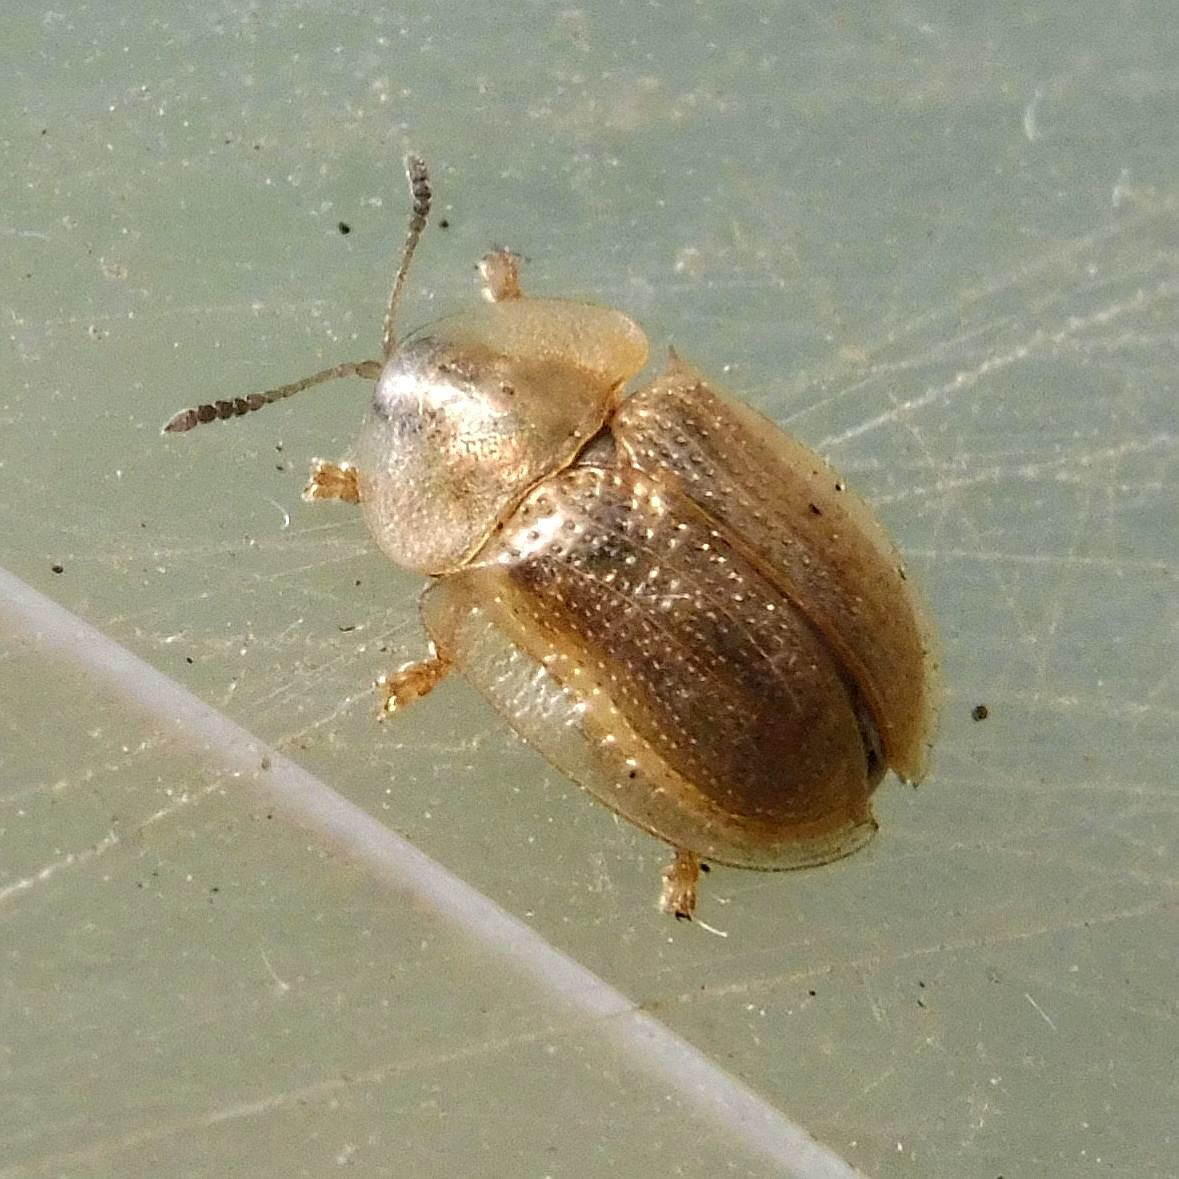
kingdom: Animalia
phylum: Arthropoda
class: Insecta
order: Coleoptera
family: Chrysomelidae
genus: Cassida
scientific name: Cassida flaveola
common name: Pale tortoise beetle
